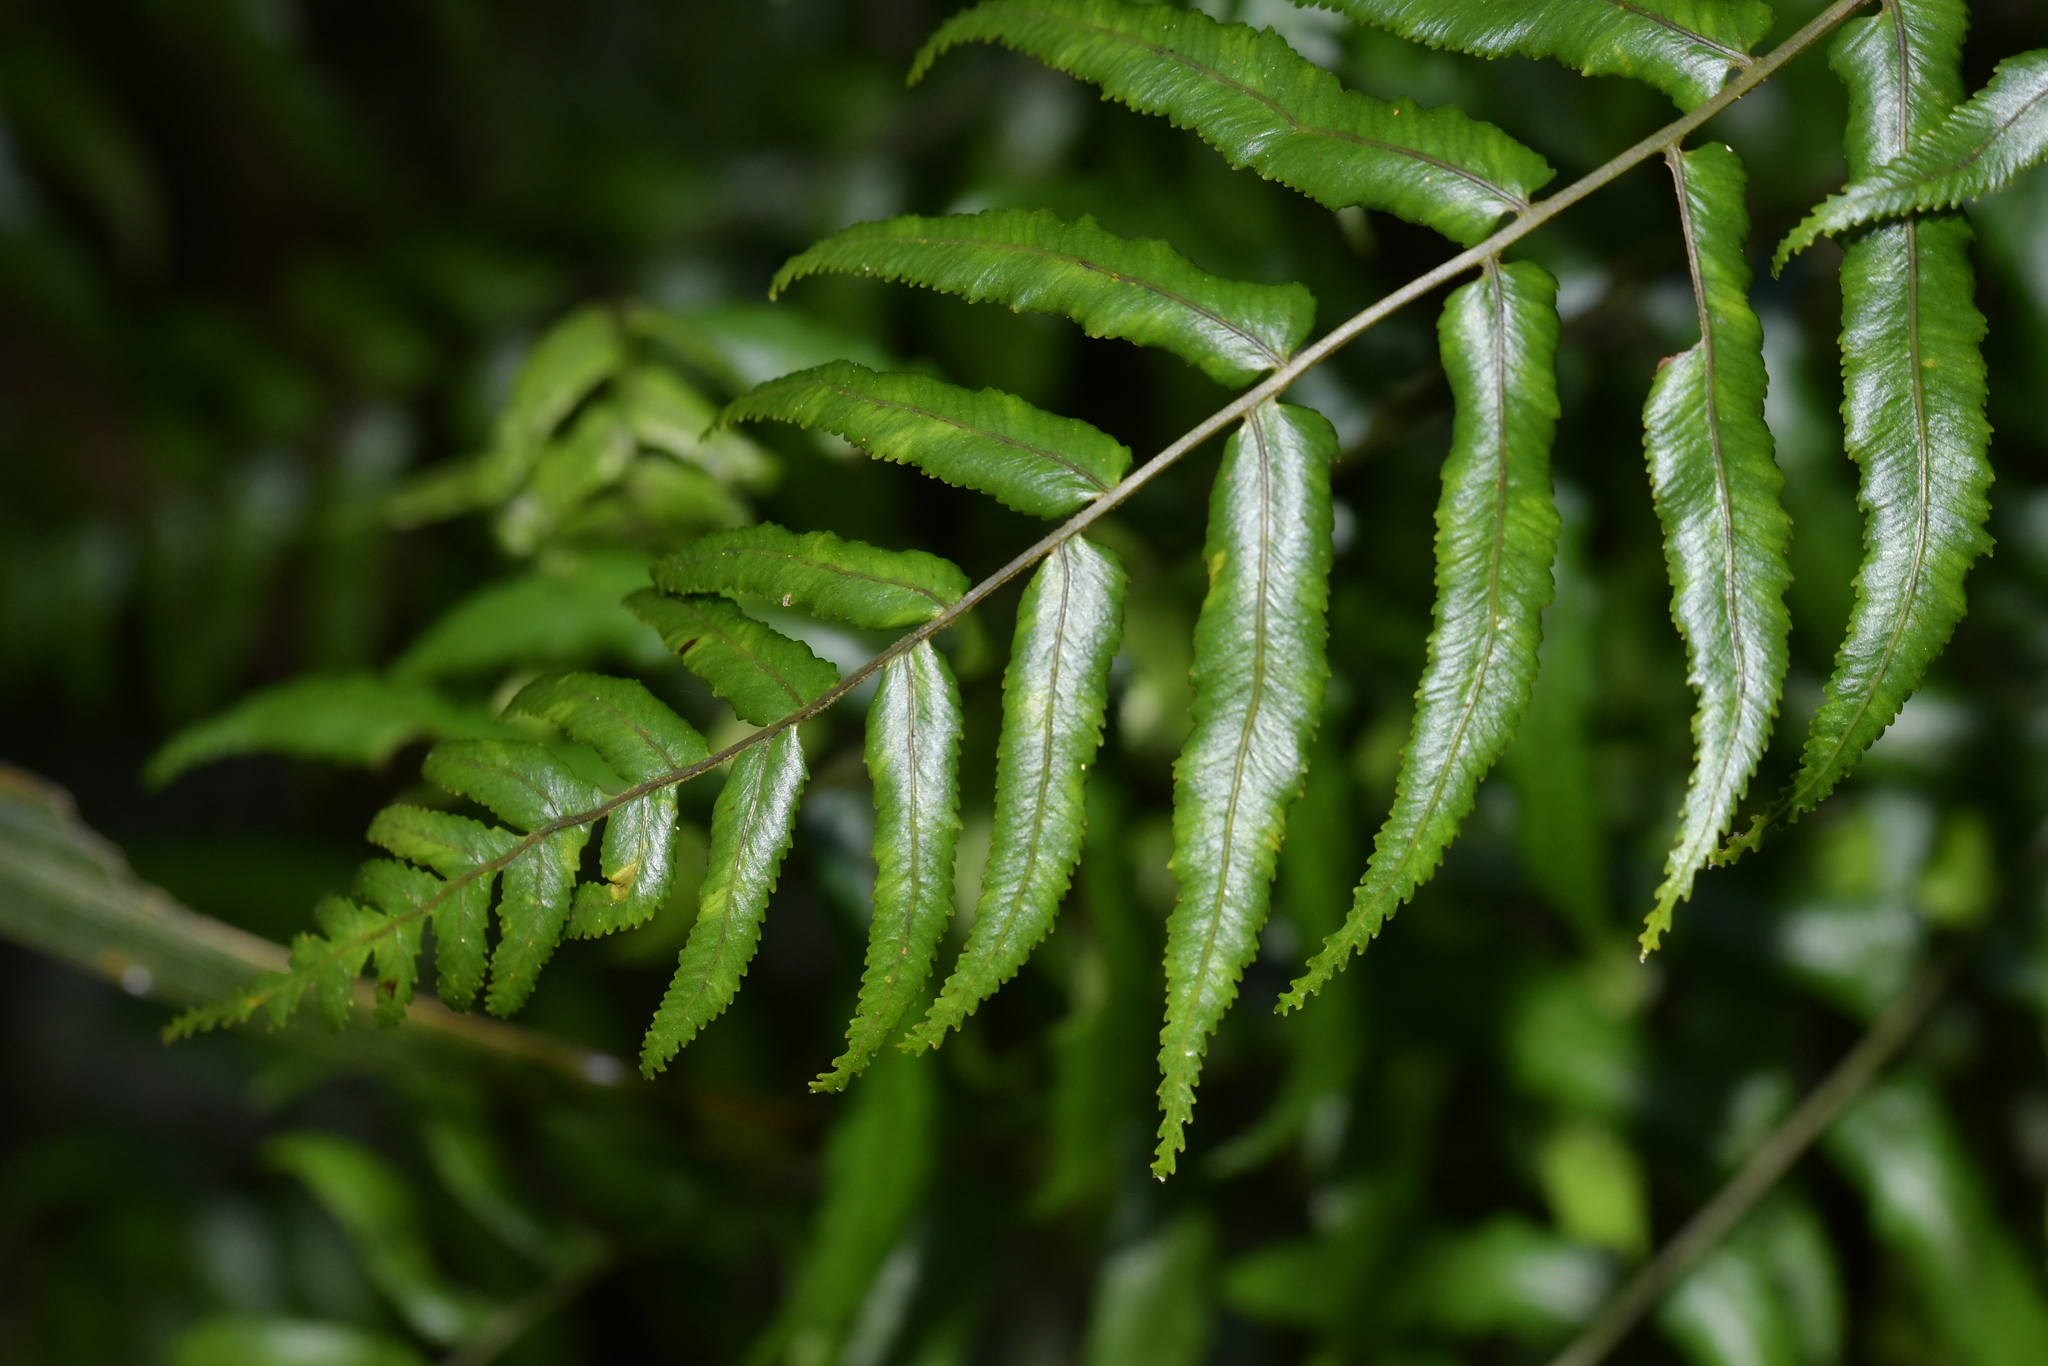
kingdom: Plantae
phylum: Tracheophyta
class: Polypodiopsida
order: Polypodiales
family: Blechnaceae
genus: Icarus
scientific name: Icarus filiformis
